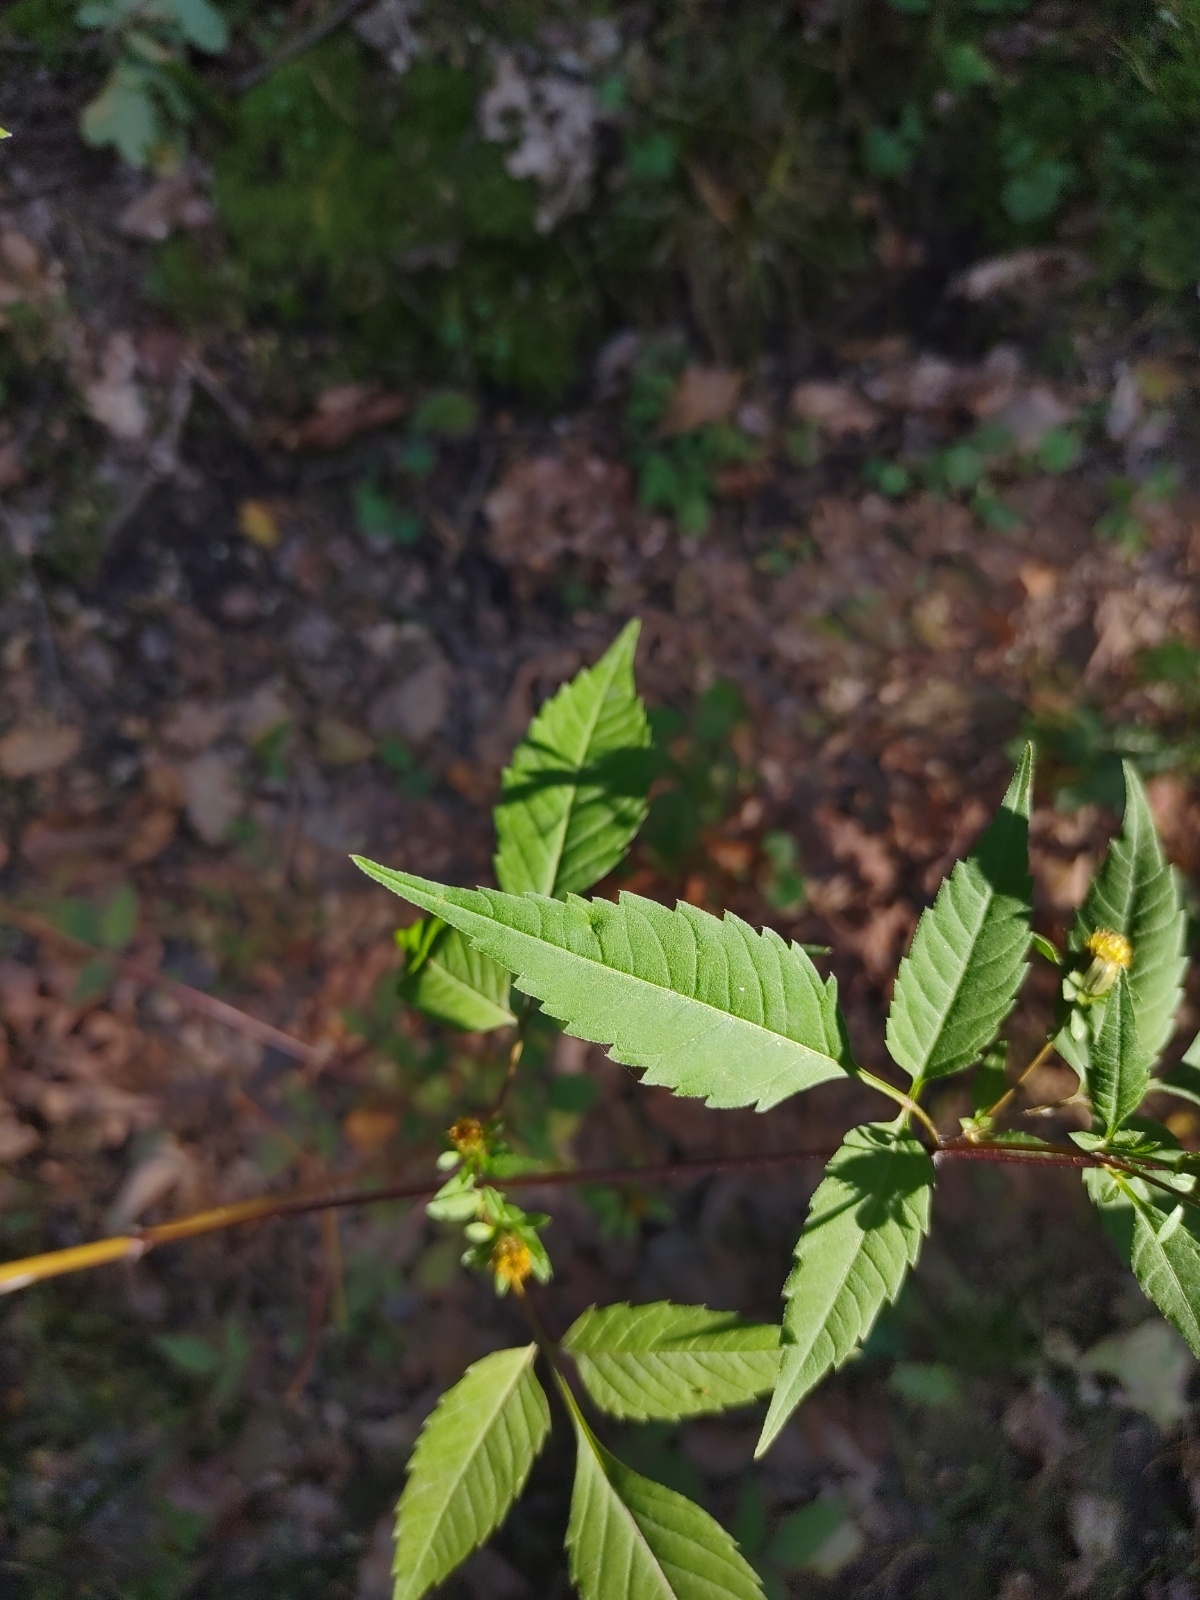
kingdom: Plantae
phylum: Tracheophyta
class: Magnoliopsida
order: Asterales
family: Asteraceae
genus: Bidens
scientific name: Bidens frondosa
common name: Beggarticks
